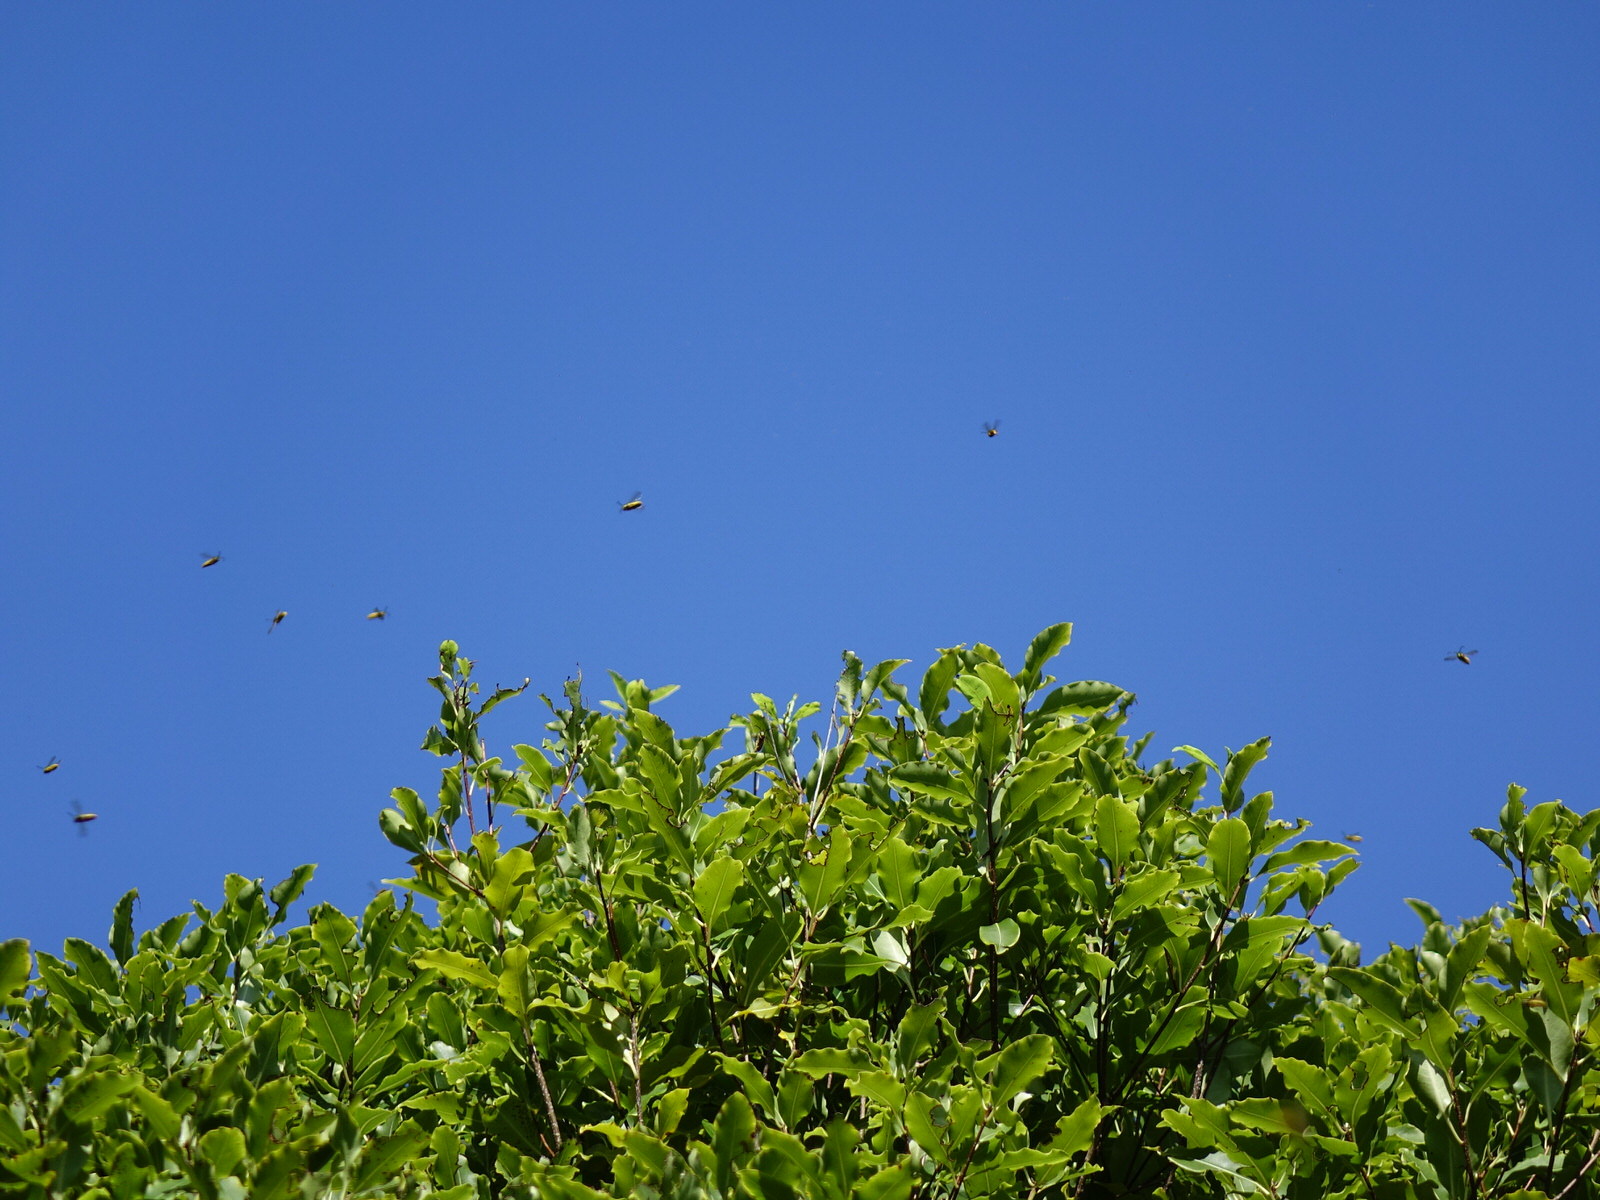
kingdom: Animalia
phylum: Arthropoda
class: Insecta
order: Hymenoptera
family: Vespidae
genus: Vespula
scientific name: Vespula vulgaris
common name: Common wasp
